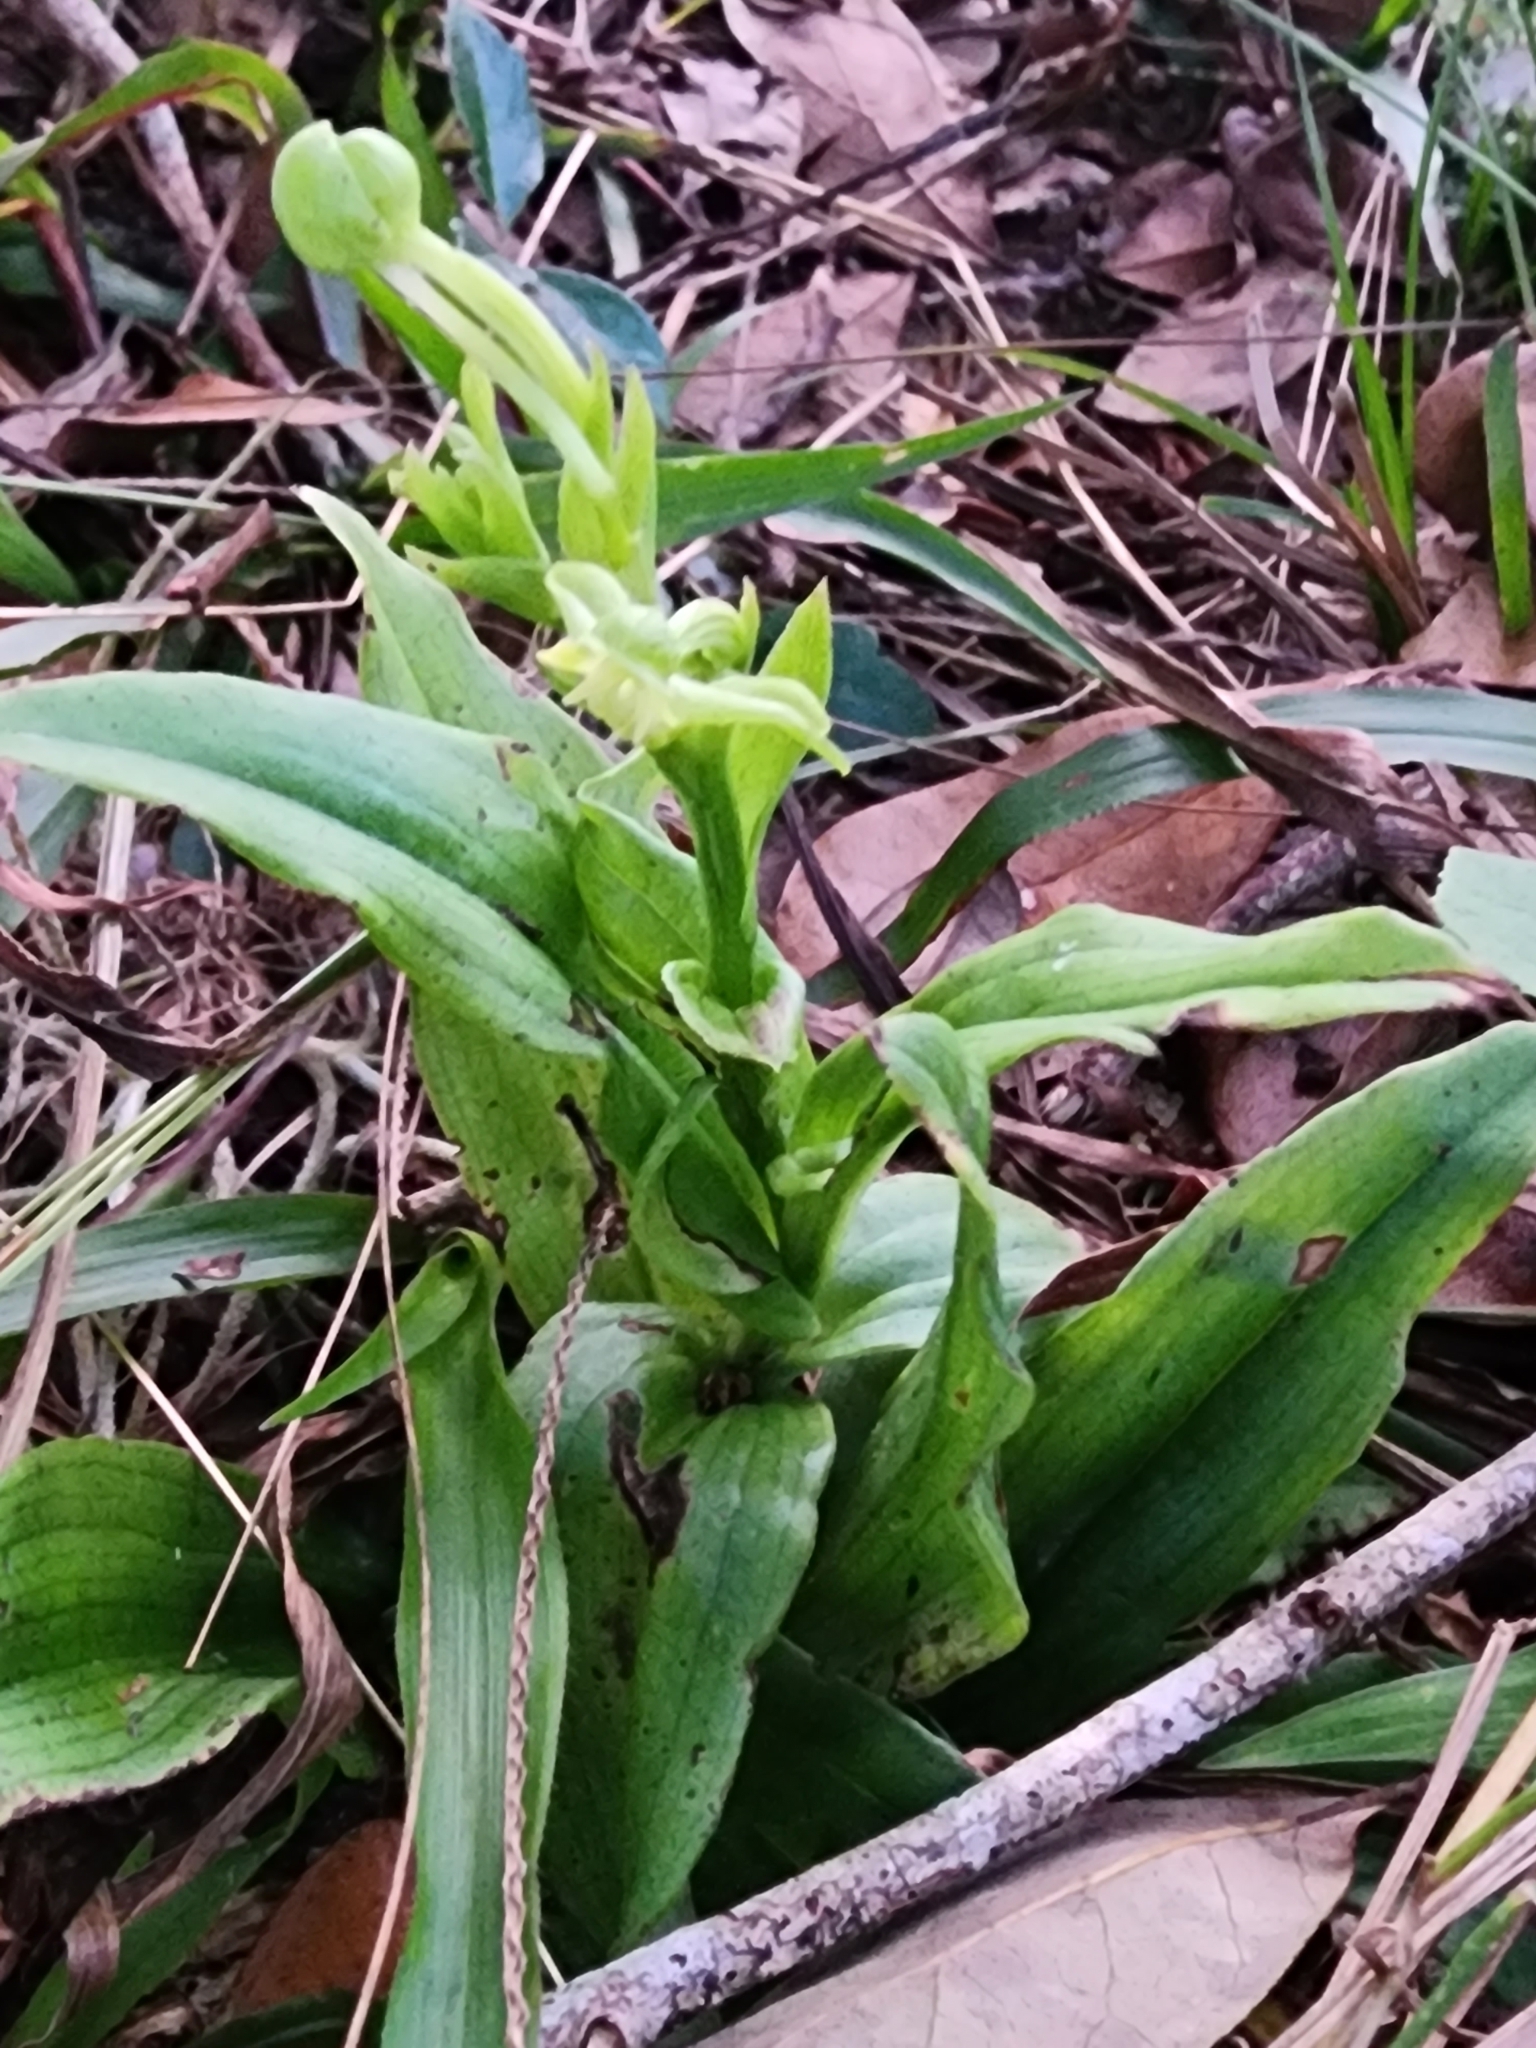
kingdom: Plantae
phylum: Tracheophyta
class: Liliopsida
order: Asparagales
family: Orchidaceae
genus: Habenaria
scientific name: Habenaria floribunda
